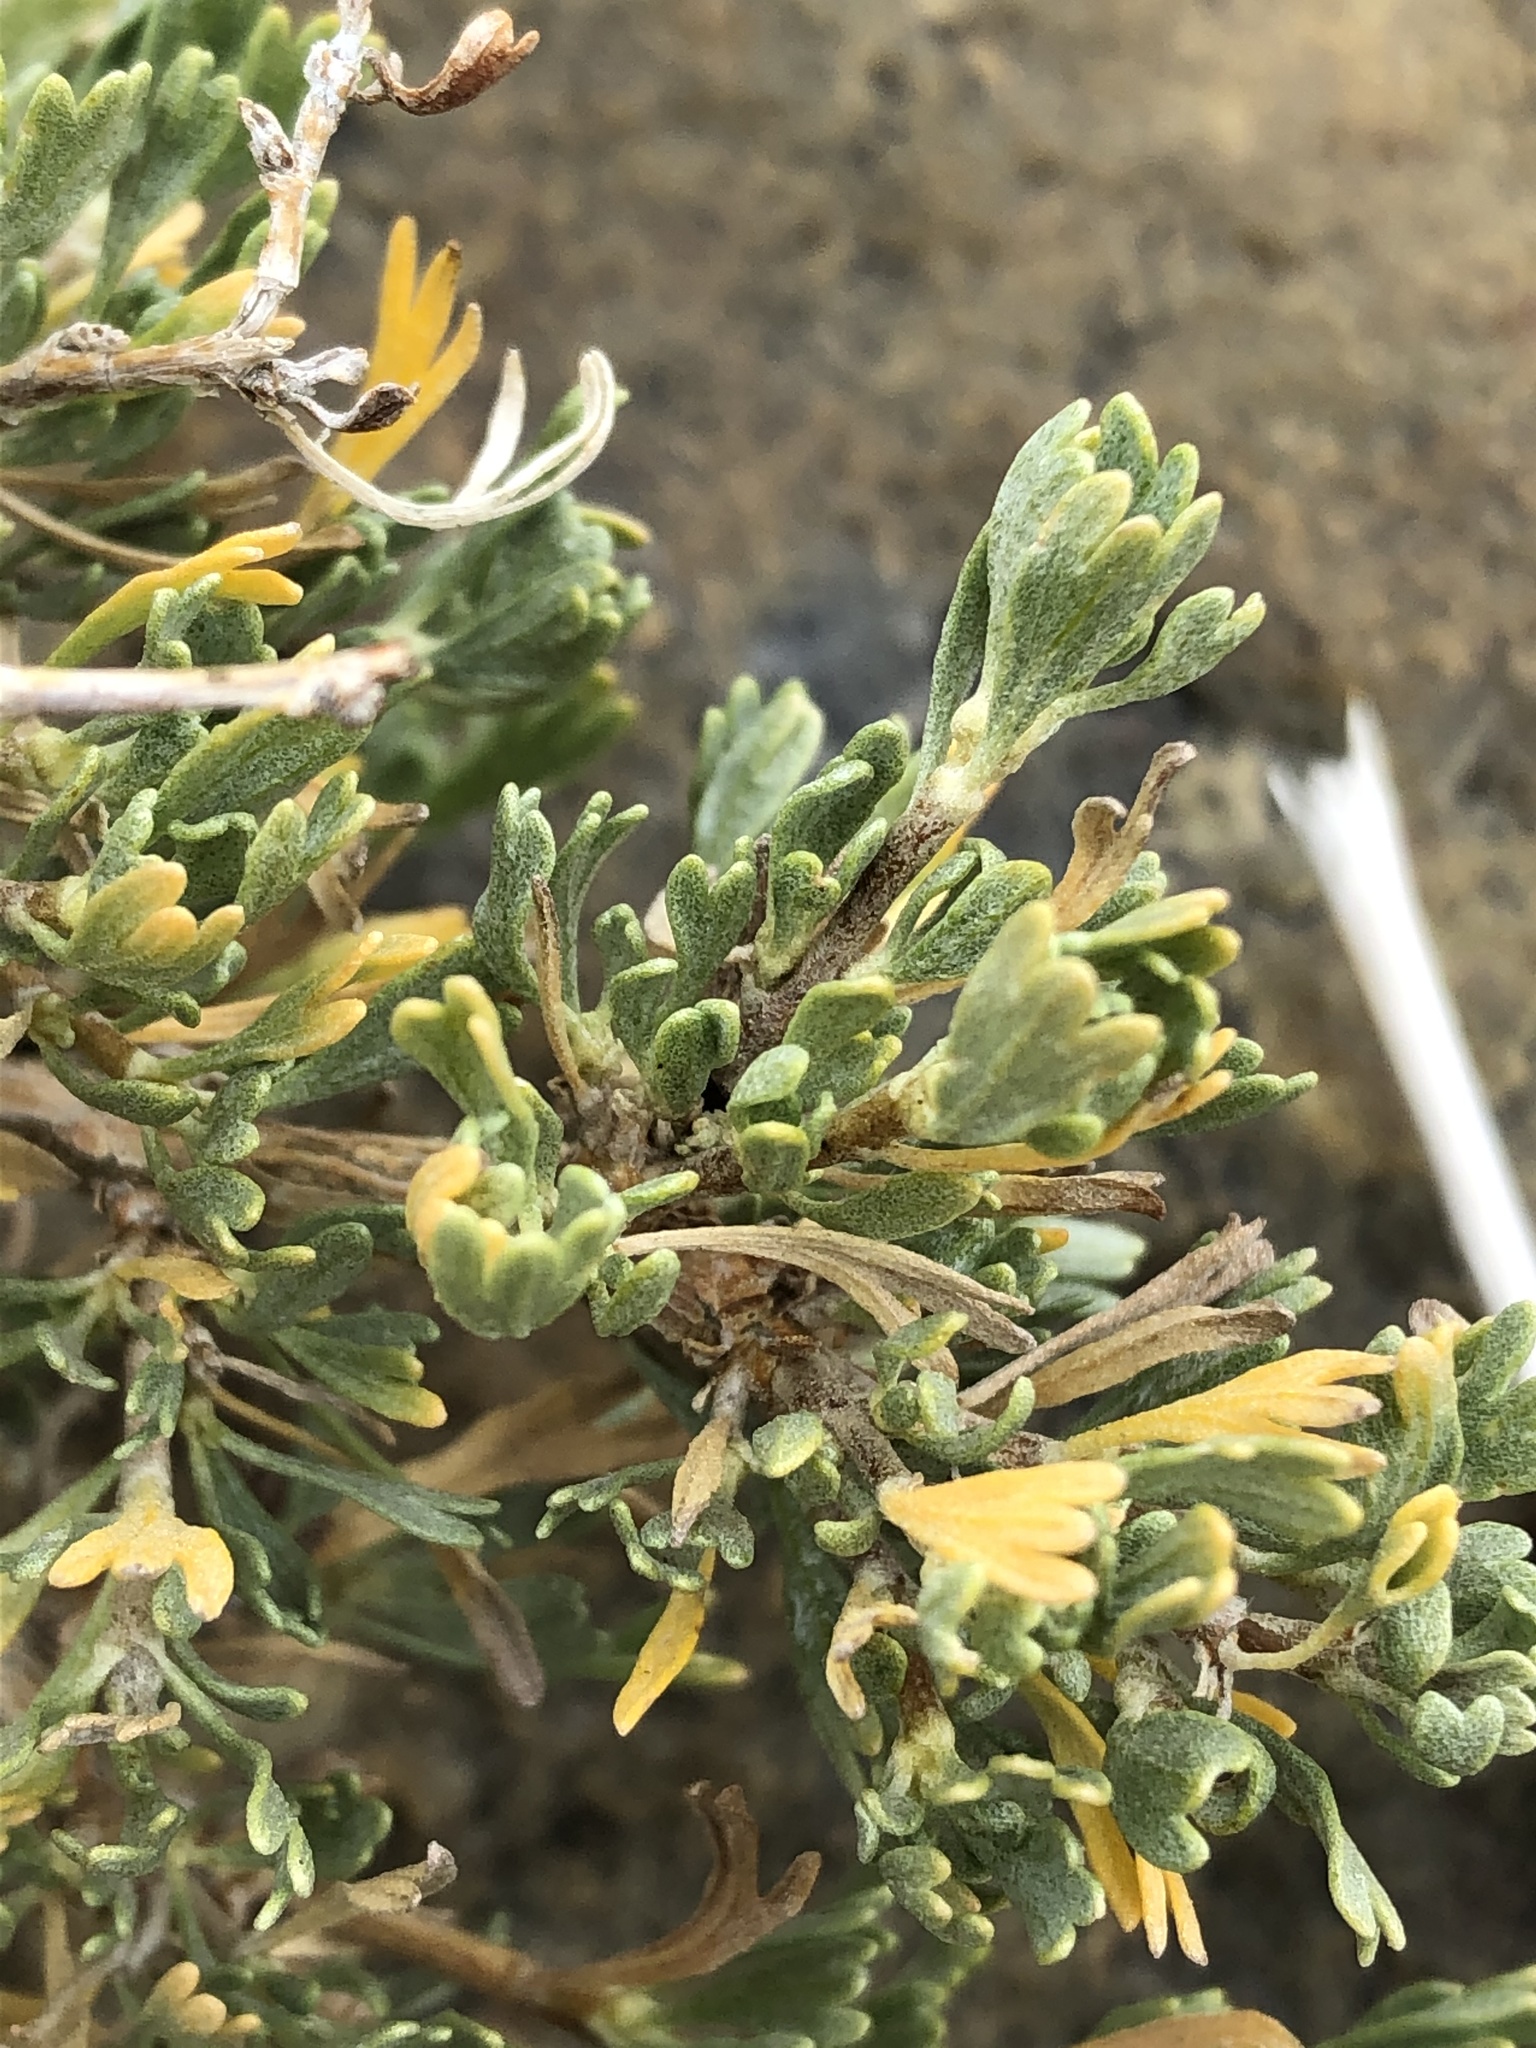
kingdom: Plantae
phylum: Tracheophyta
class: Magnoliopsida
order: Rosales
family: Rosaceae
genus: Purshia
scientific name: Purshia tridentata
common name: Antelope bitterbrush
